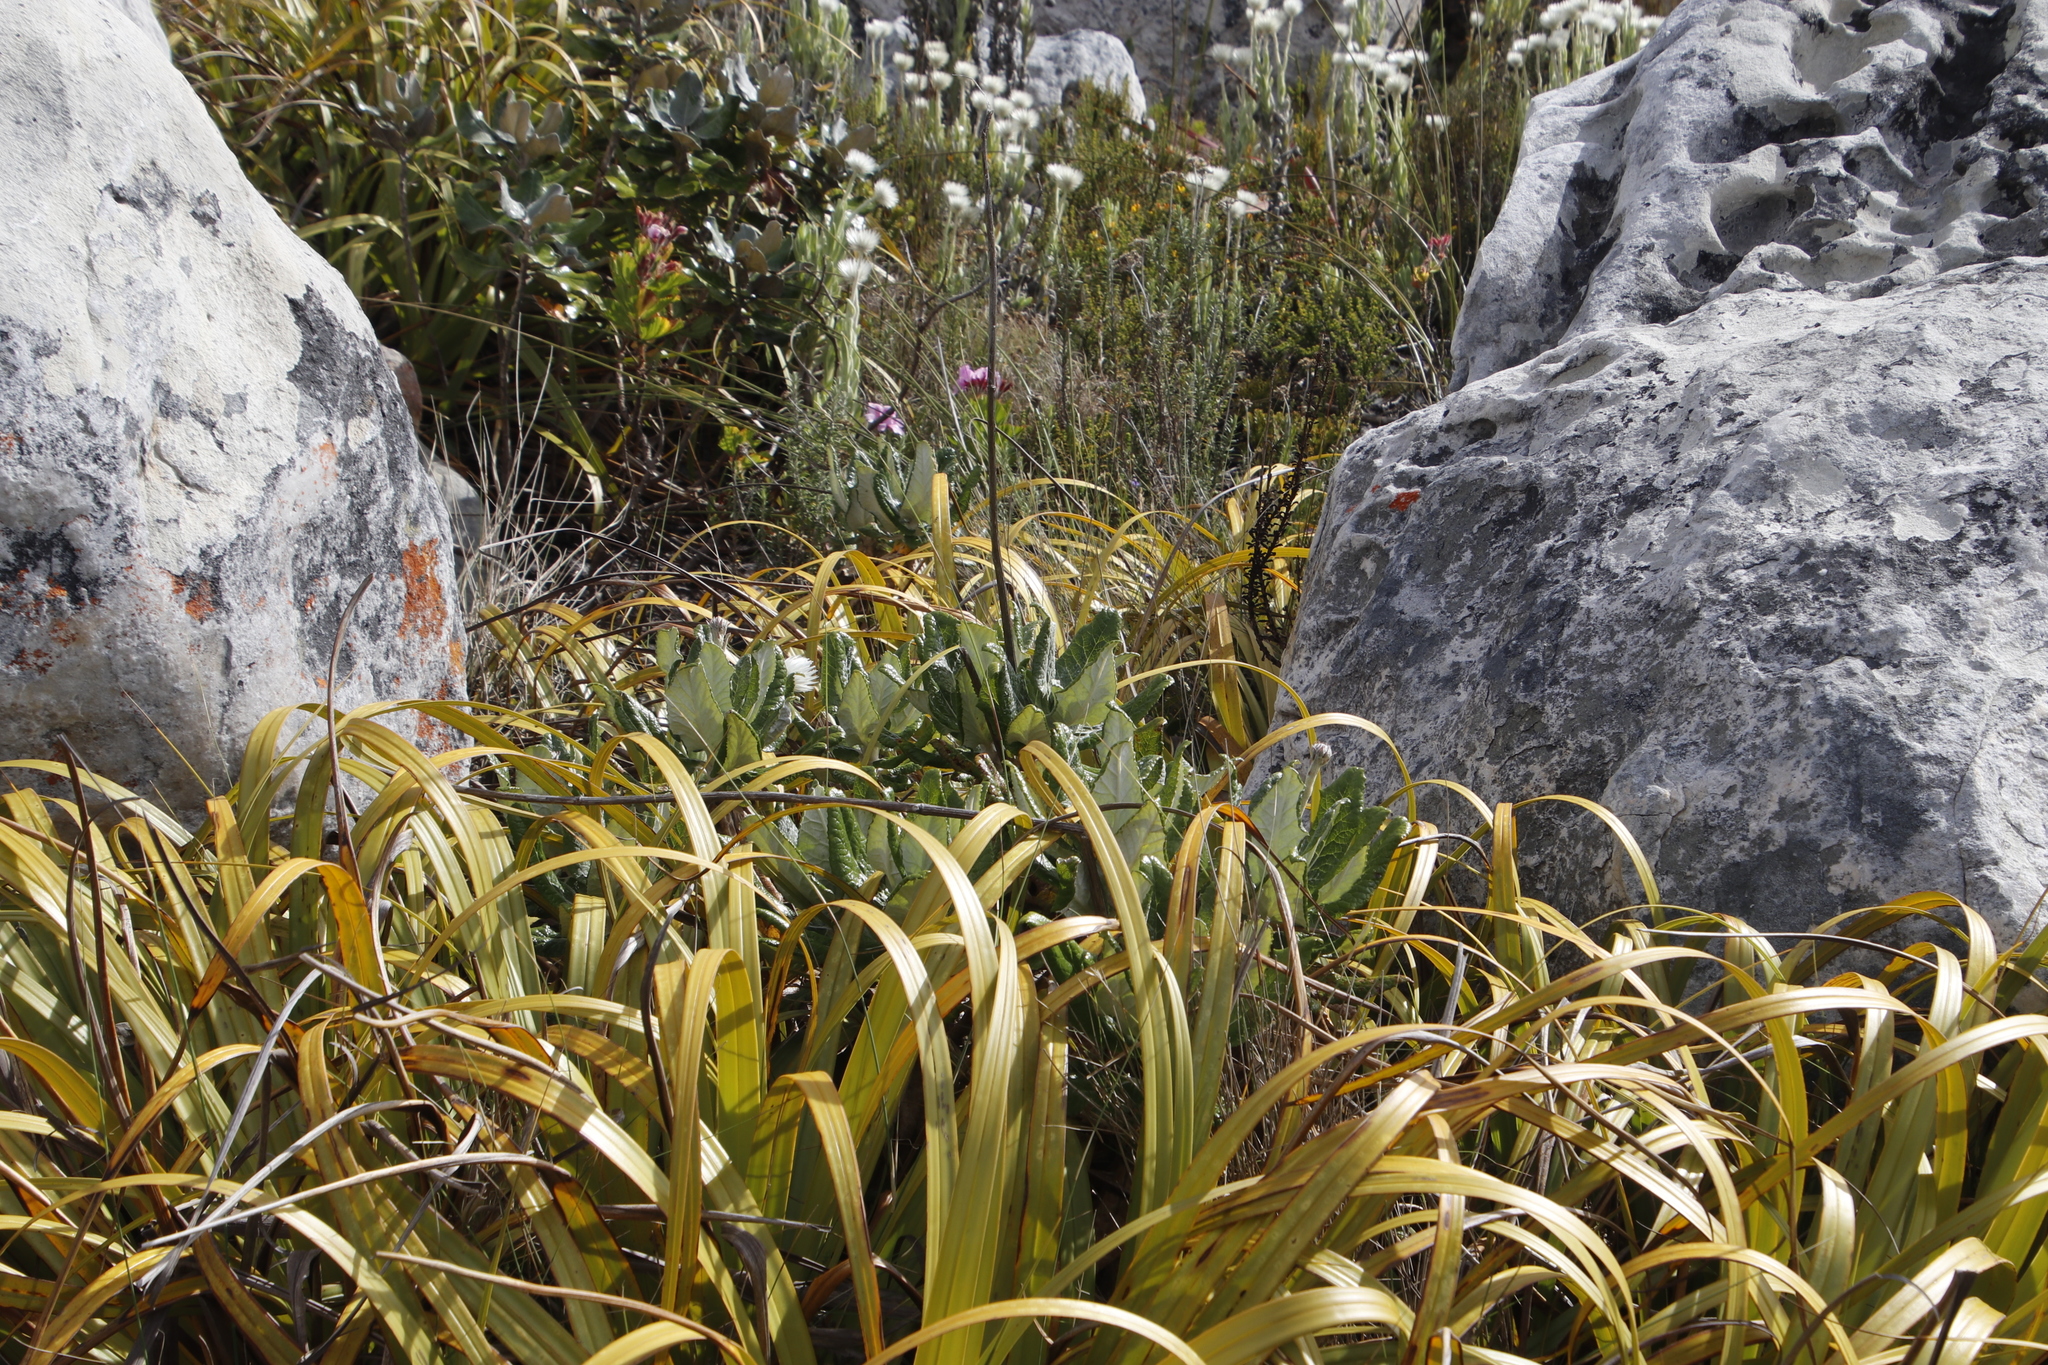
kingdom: Plantae
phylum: Tracheophyta
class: Magnoliopsida
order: Apiales
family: Apiaceae
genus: Hermas
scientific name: Hermas villosa
